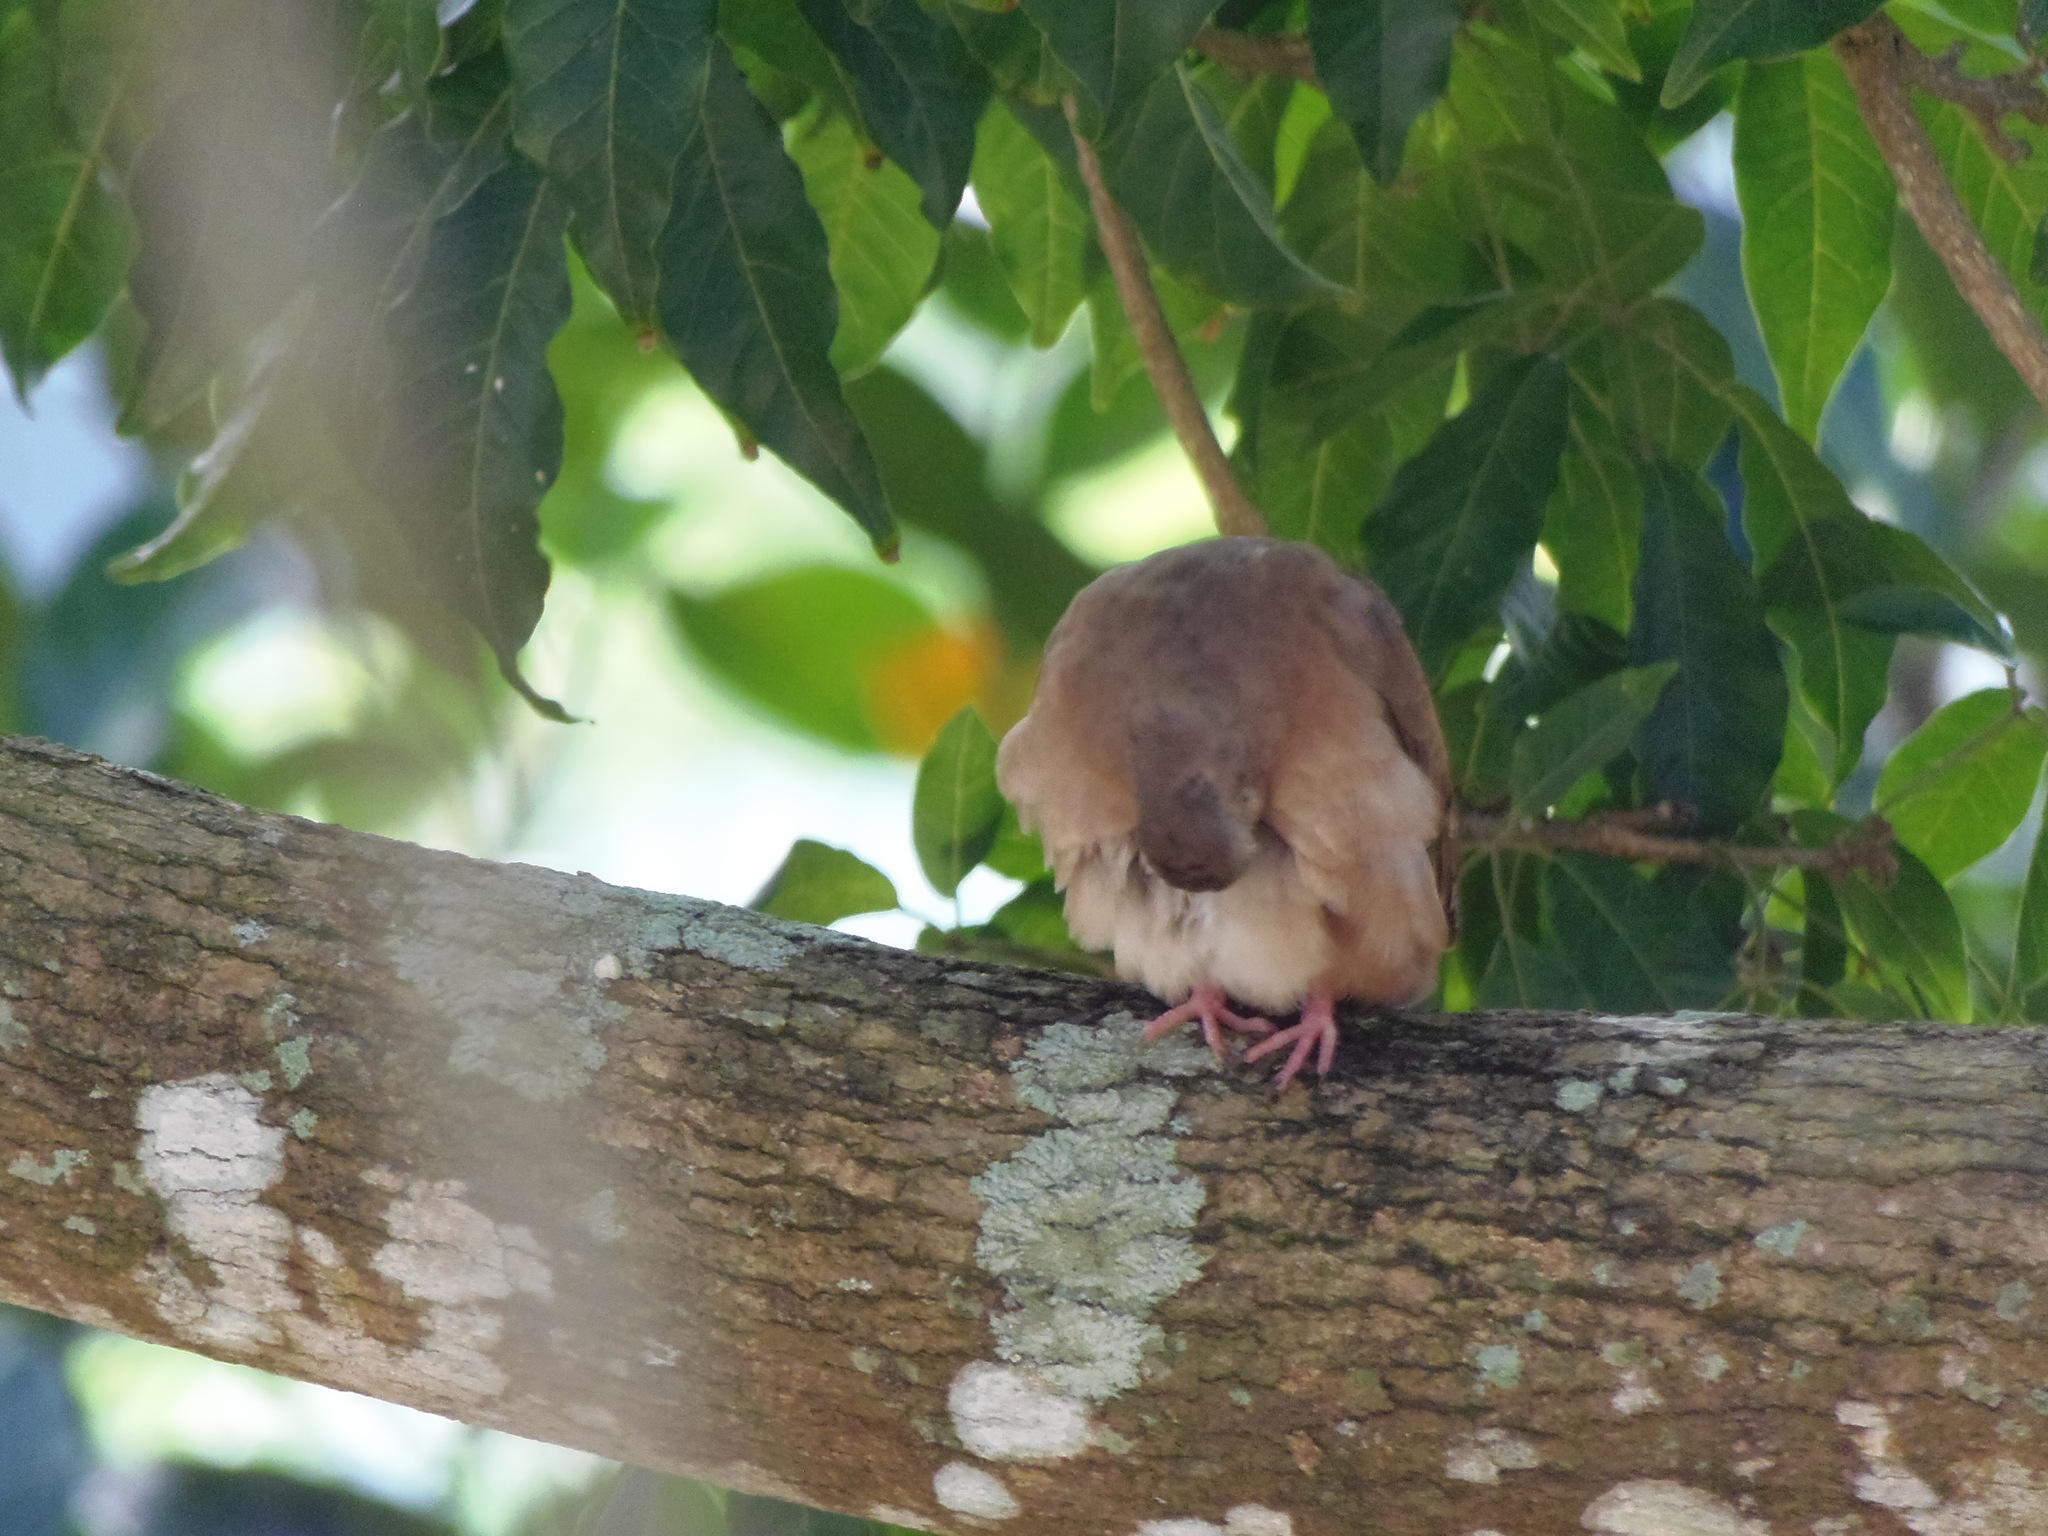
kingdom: Animalia
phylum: Chordata
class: Aves
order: Columbiformes
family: Columbidae
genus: Columbina
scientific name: Columbina talpacoti
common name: Ruddy ground dove
